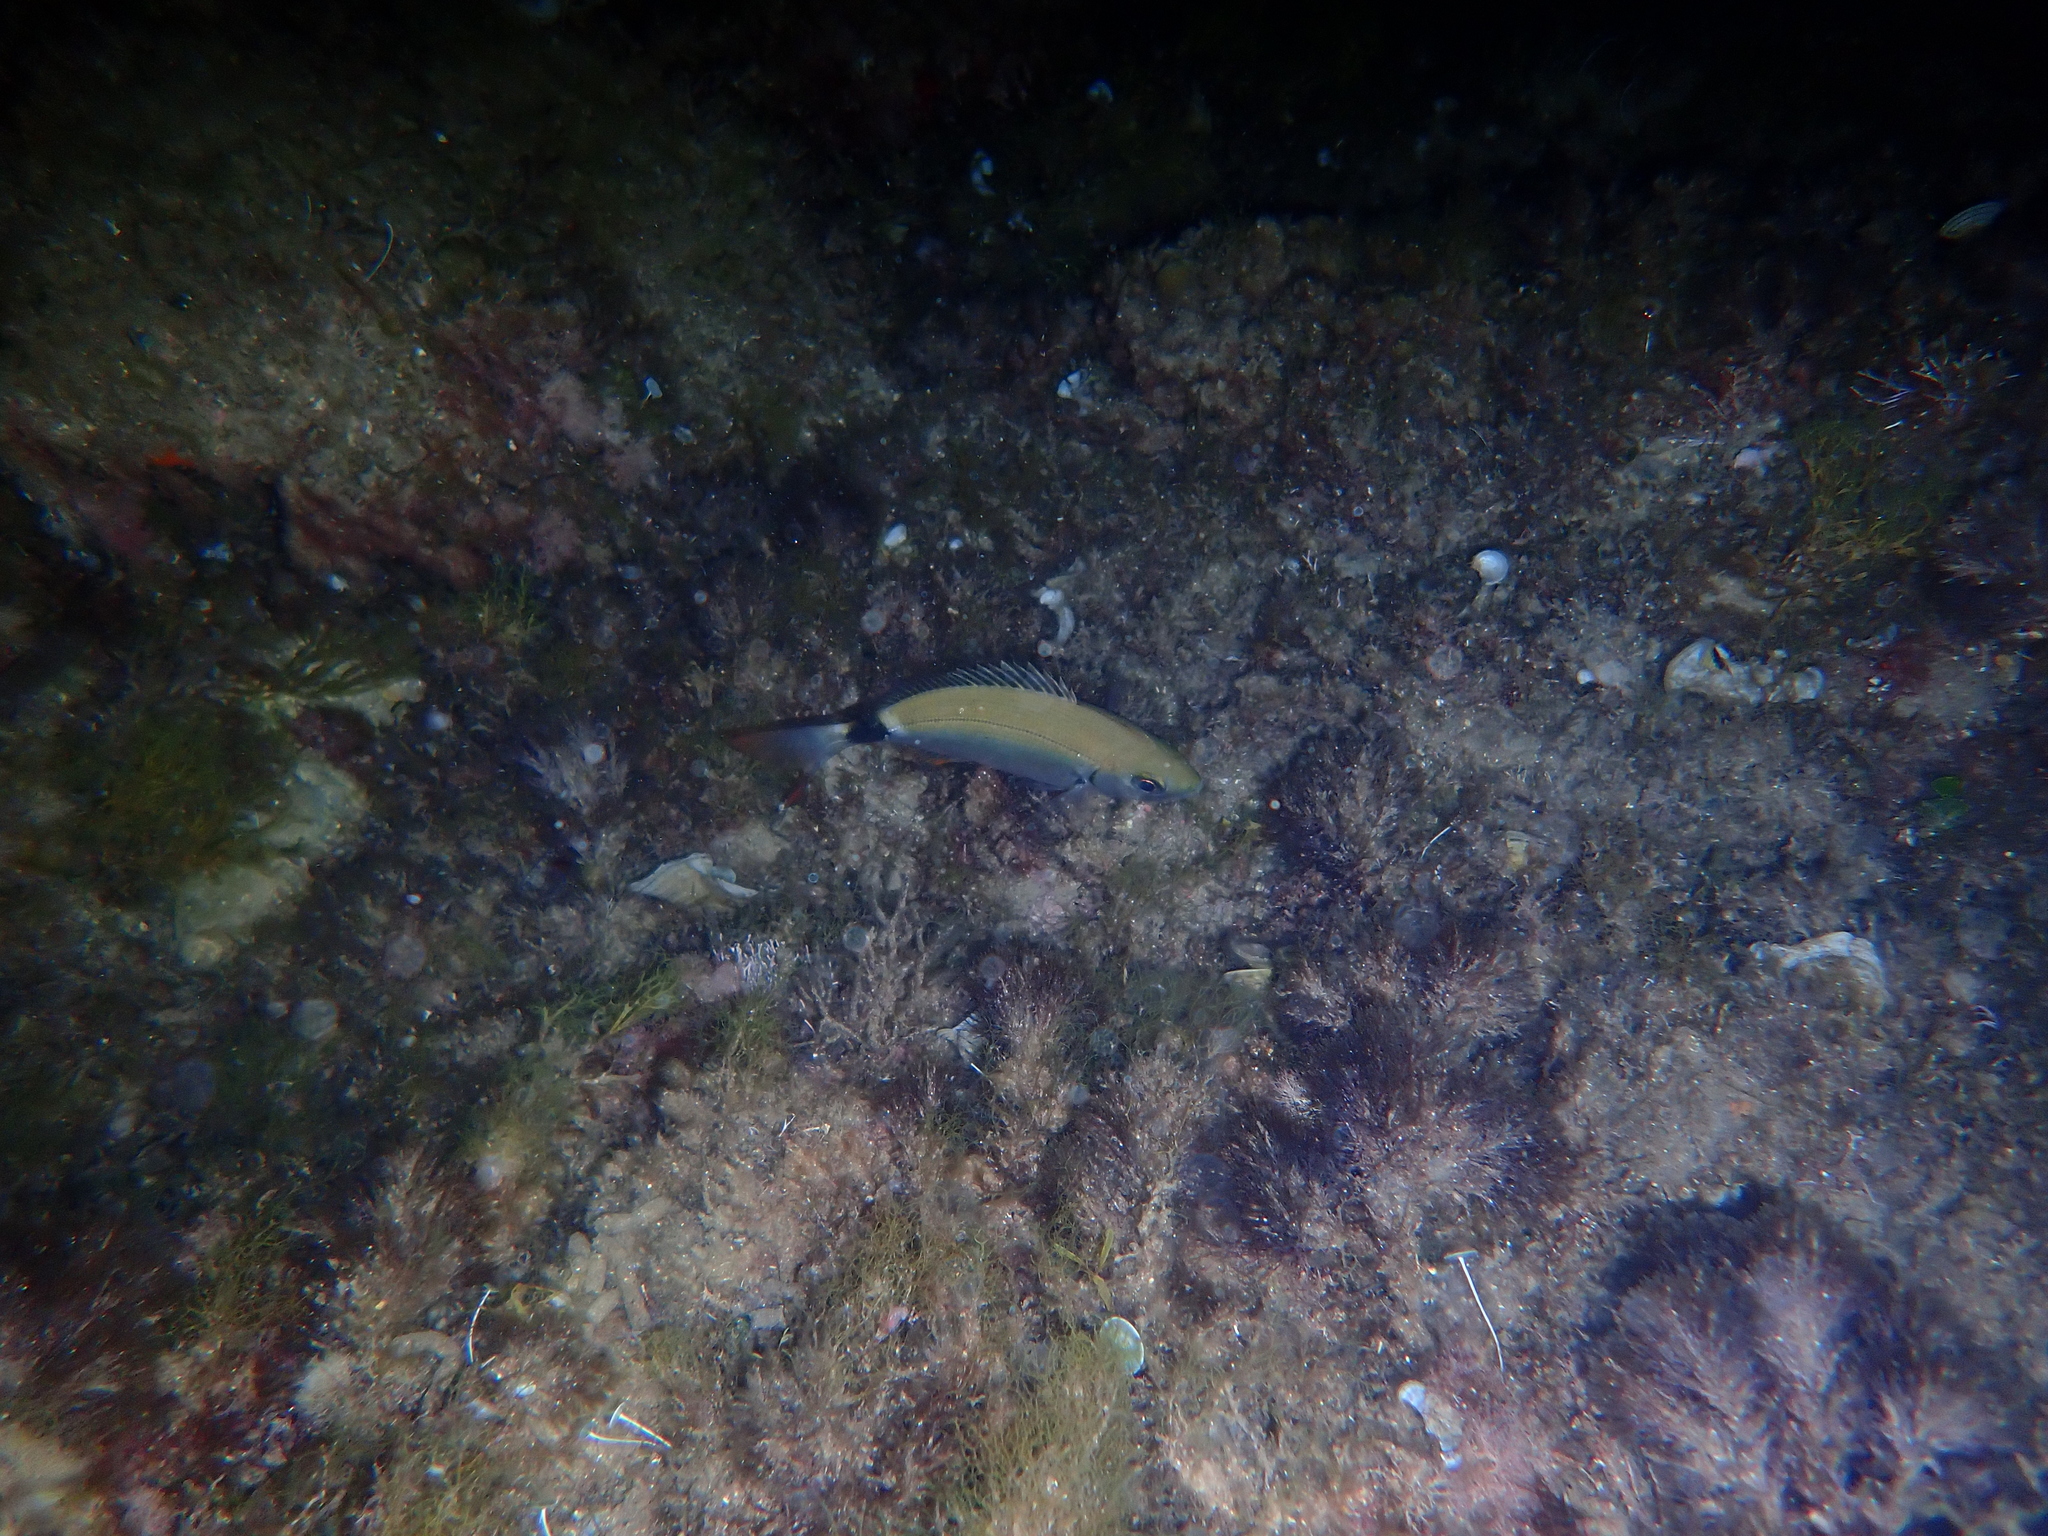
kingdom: Animalia
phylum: Chordata
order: Perciformes
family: Sparidae
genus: Oblada
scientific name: Oblada melanura
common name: Saddled seabream
